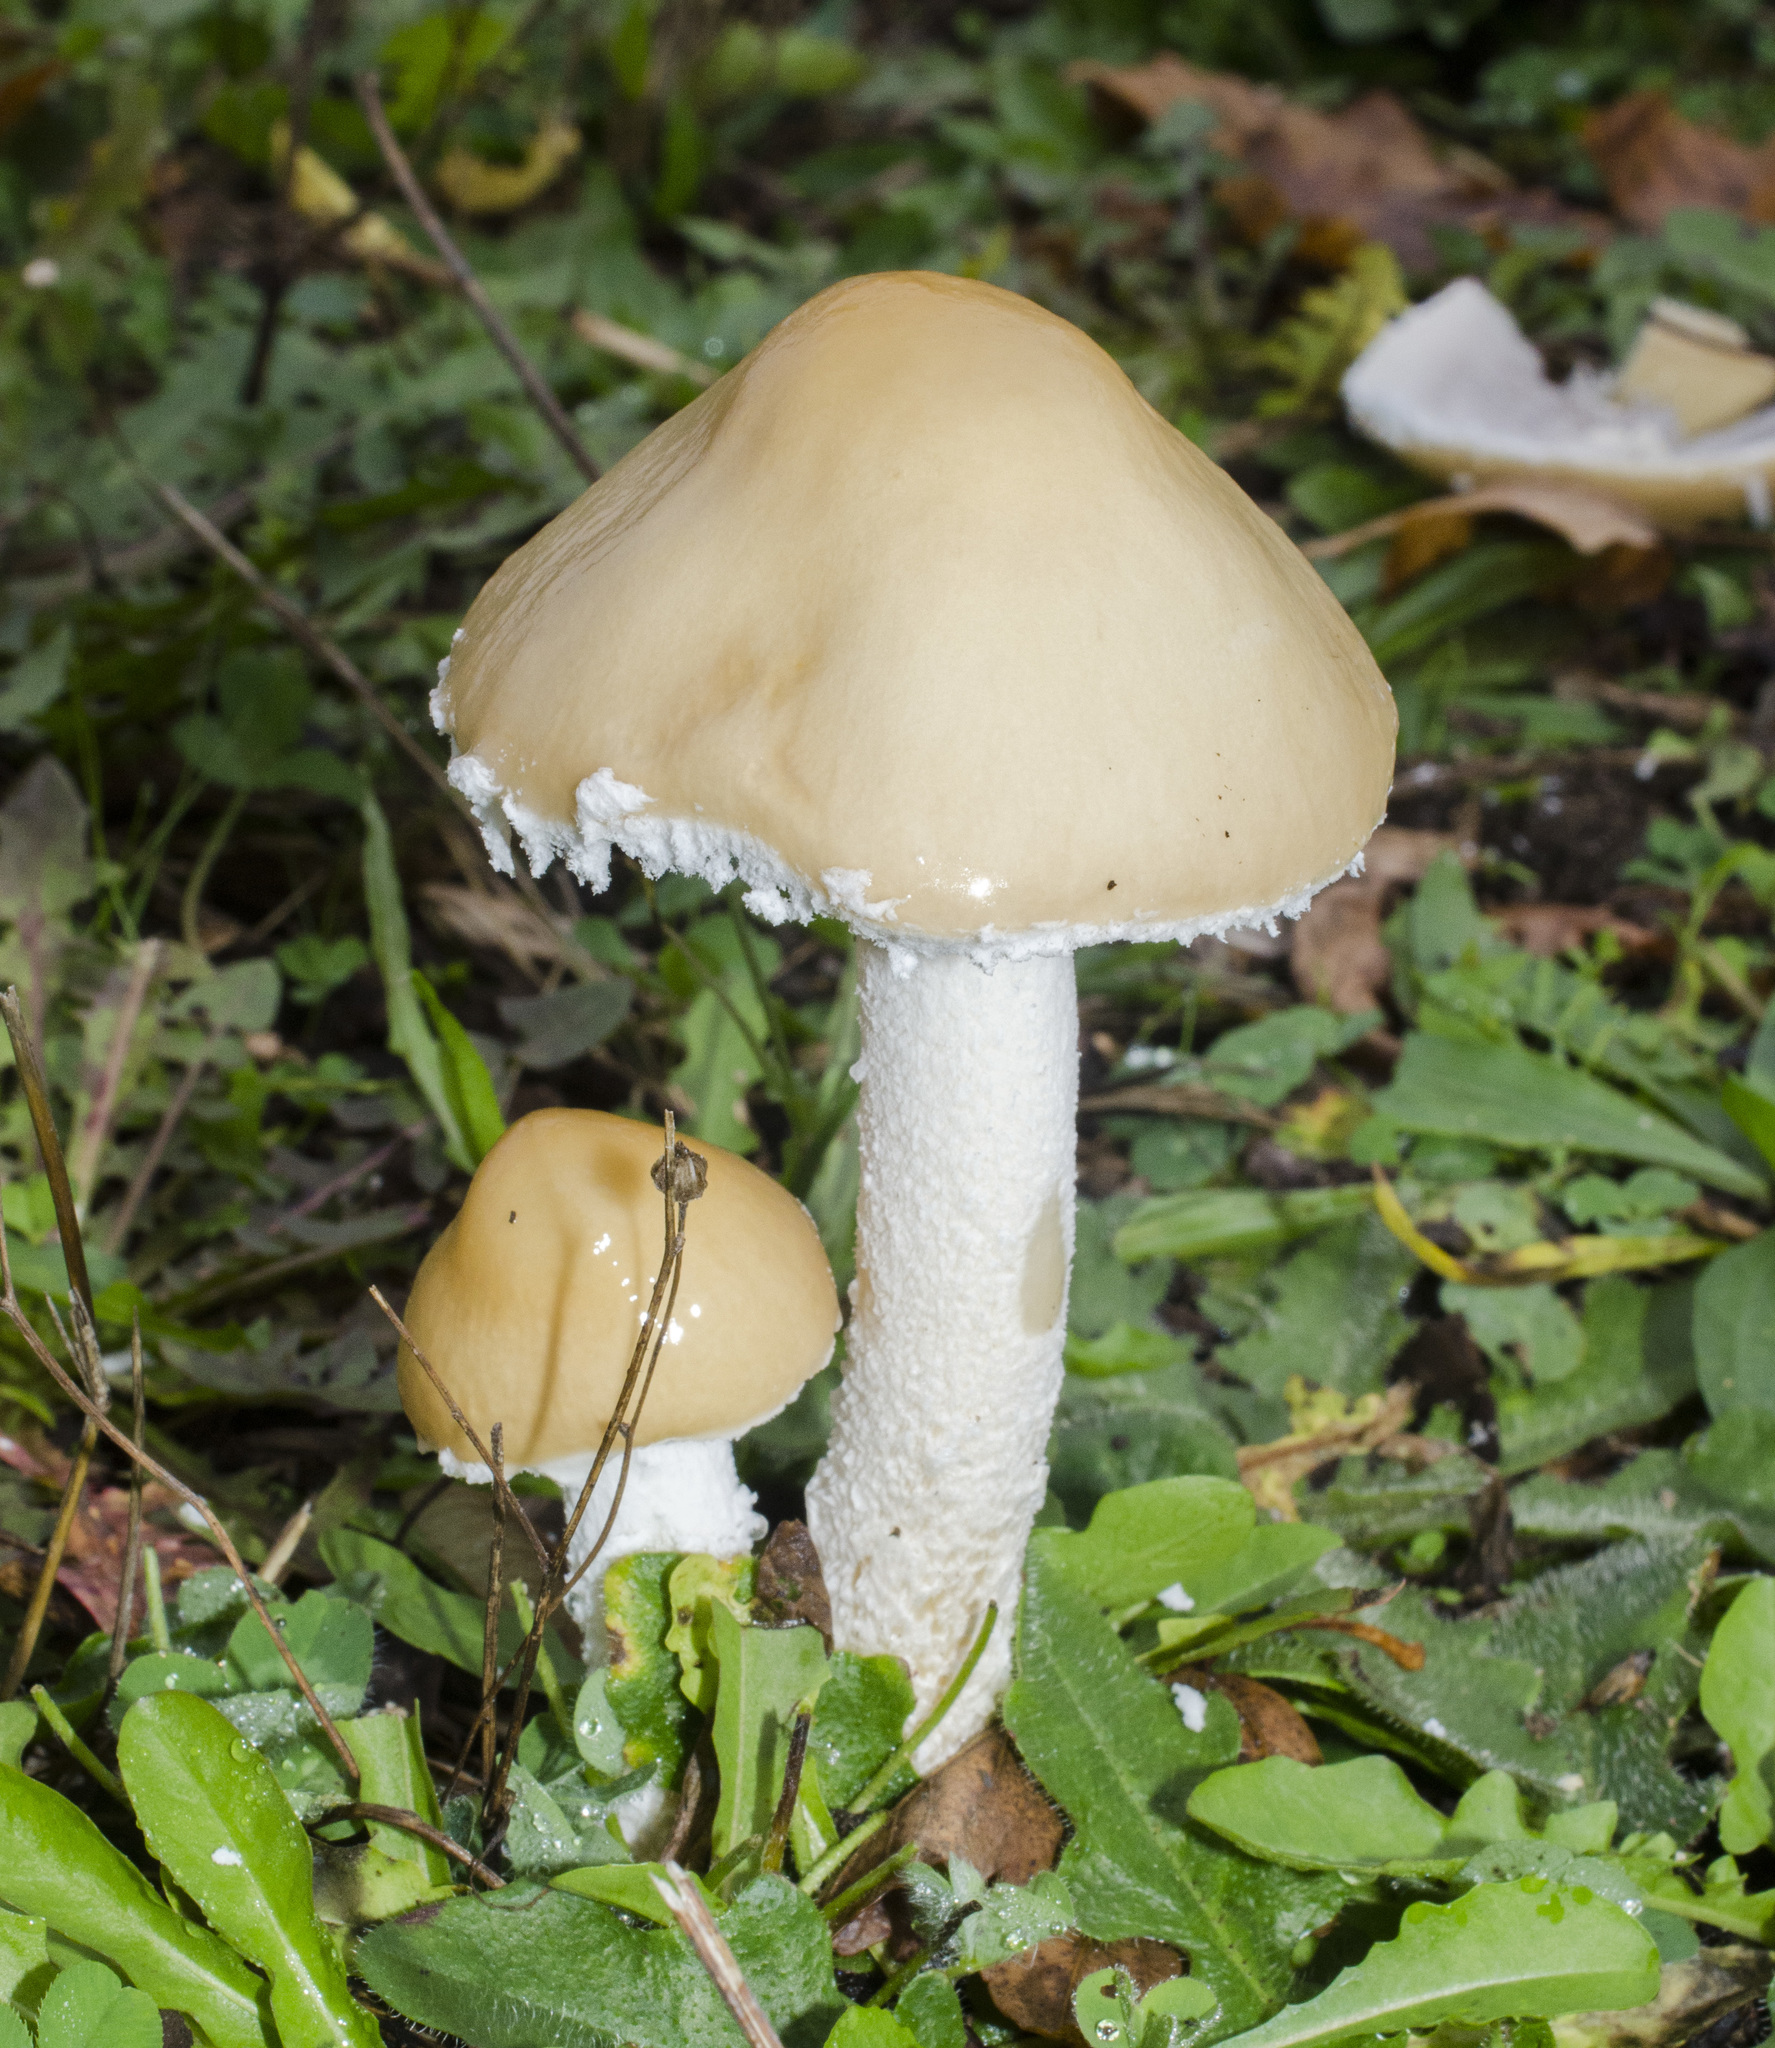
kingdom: Fungi
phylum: Basidiomycota
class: Agaricomycetes
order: Agaricales
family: Strophariaceae
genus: Stropharia
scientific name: Stropharia ambigua
